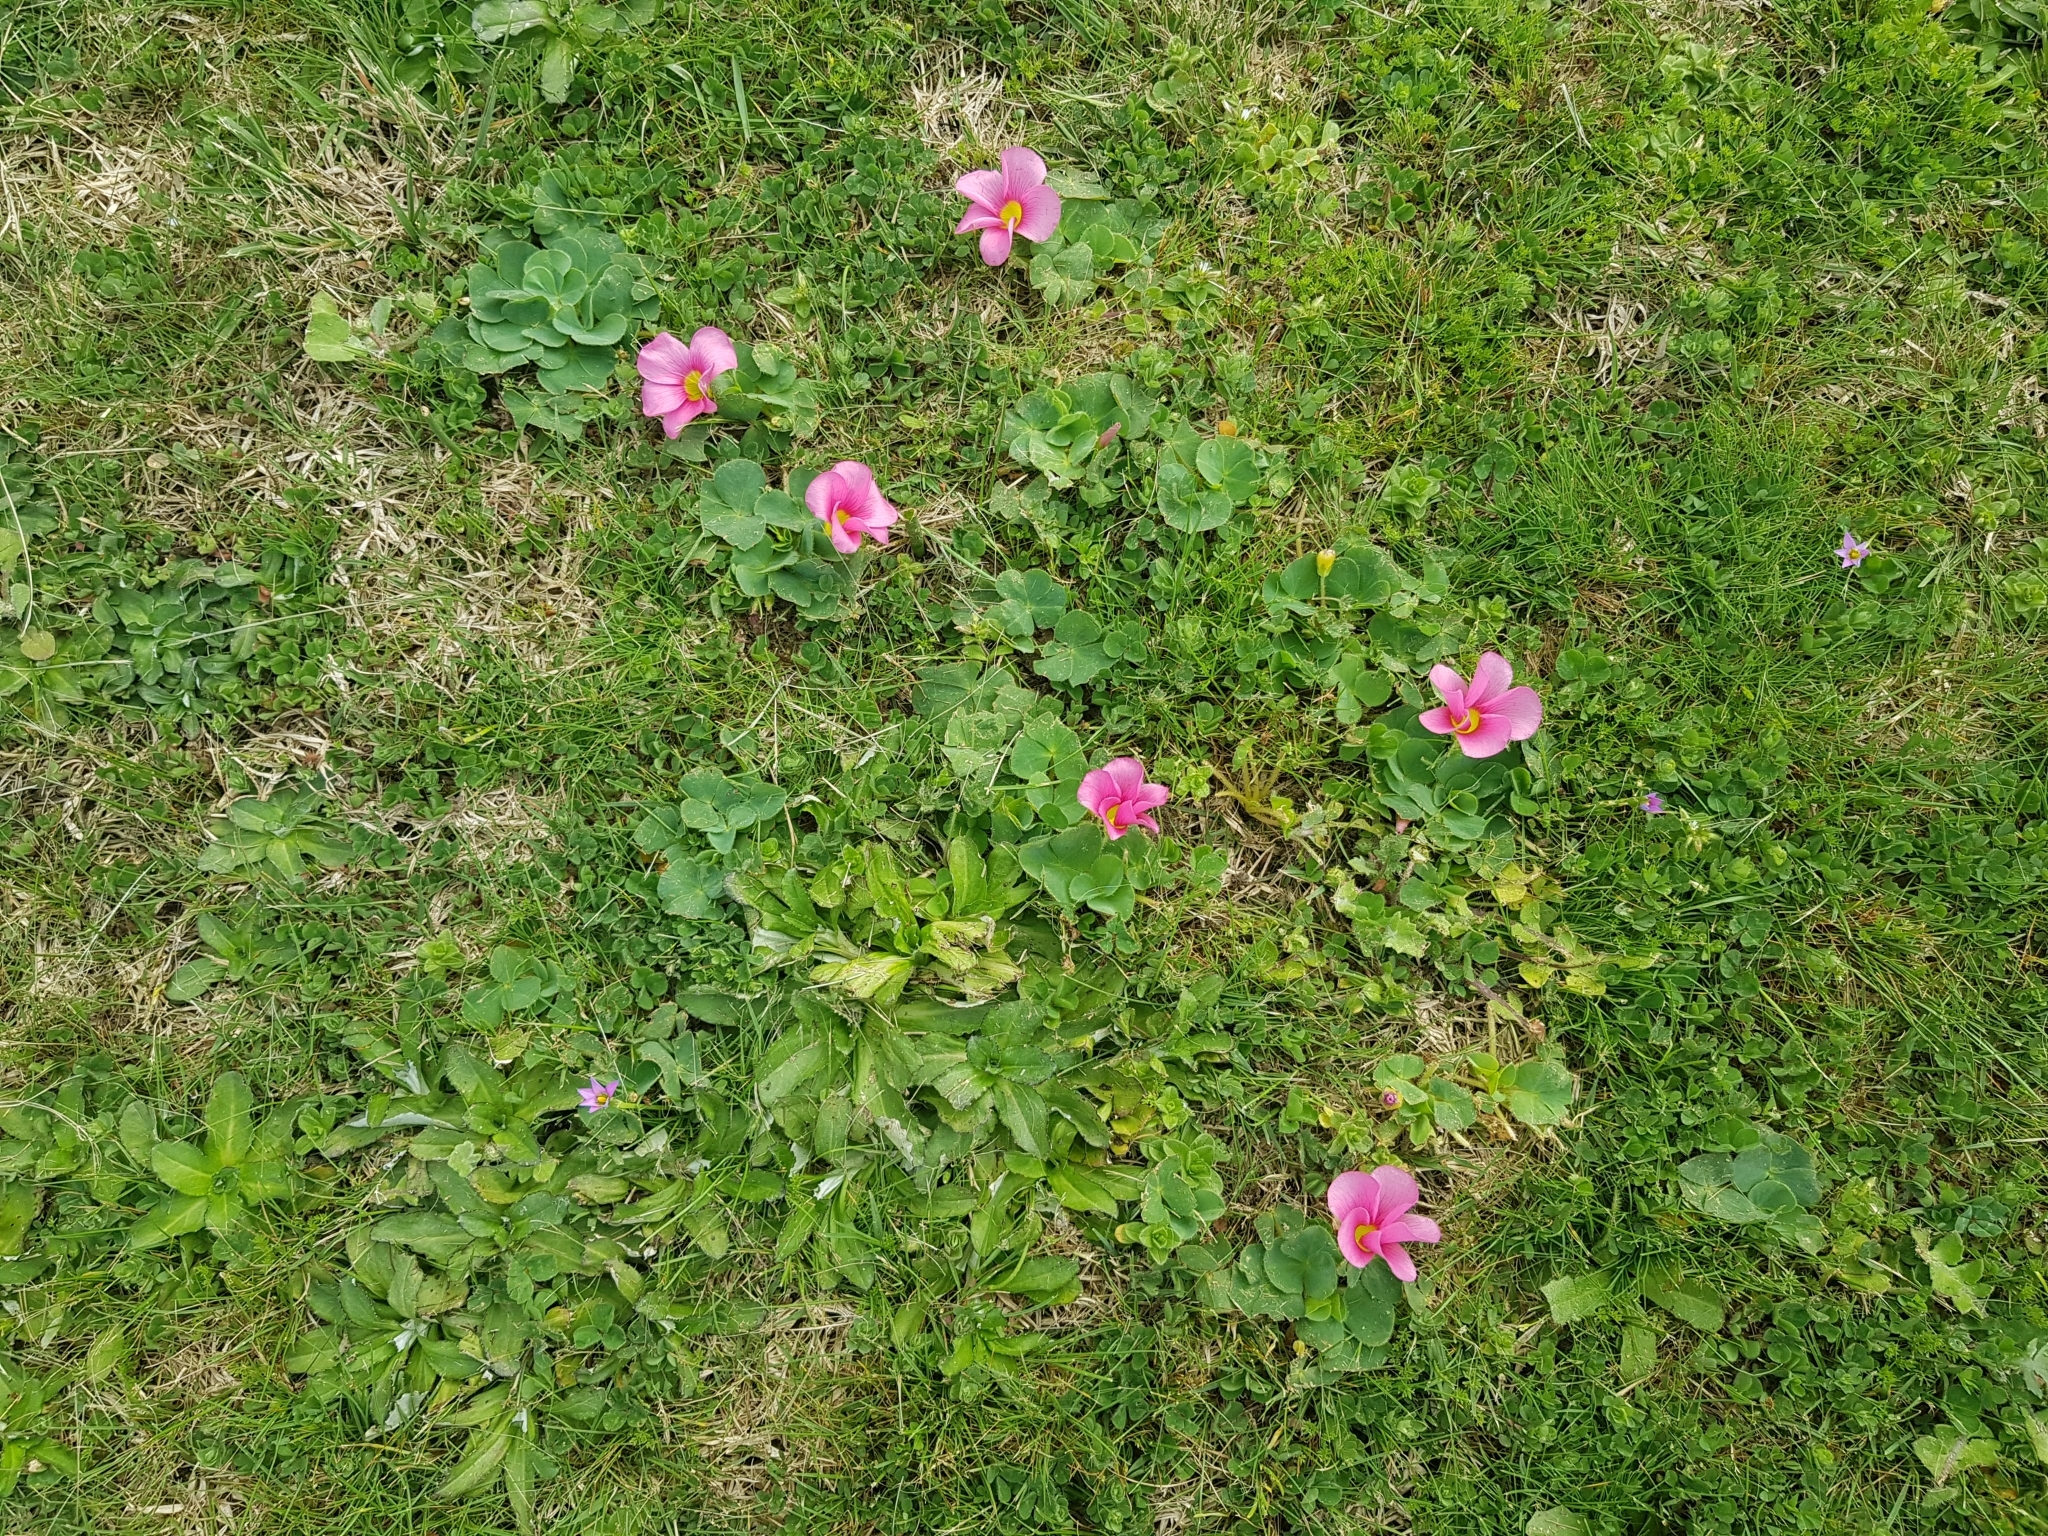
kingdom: Plantae
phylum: Tracheophyta
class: Magnoliopsida
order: Oxalidales
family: Oxalidaceae
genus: Oxalis
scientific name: Oxalis purpurea
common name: Purple woodsorrel
